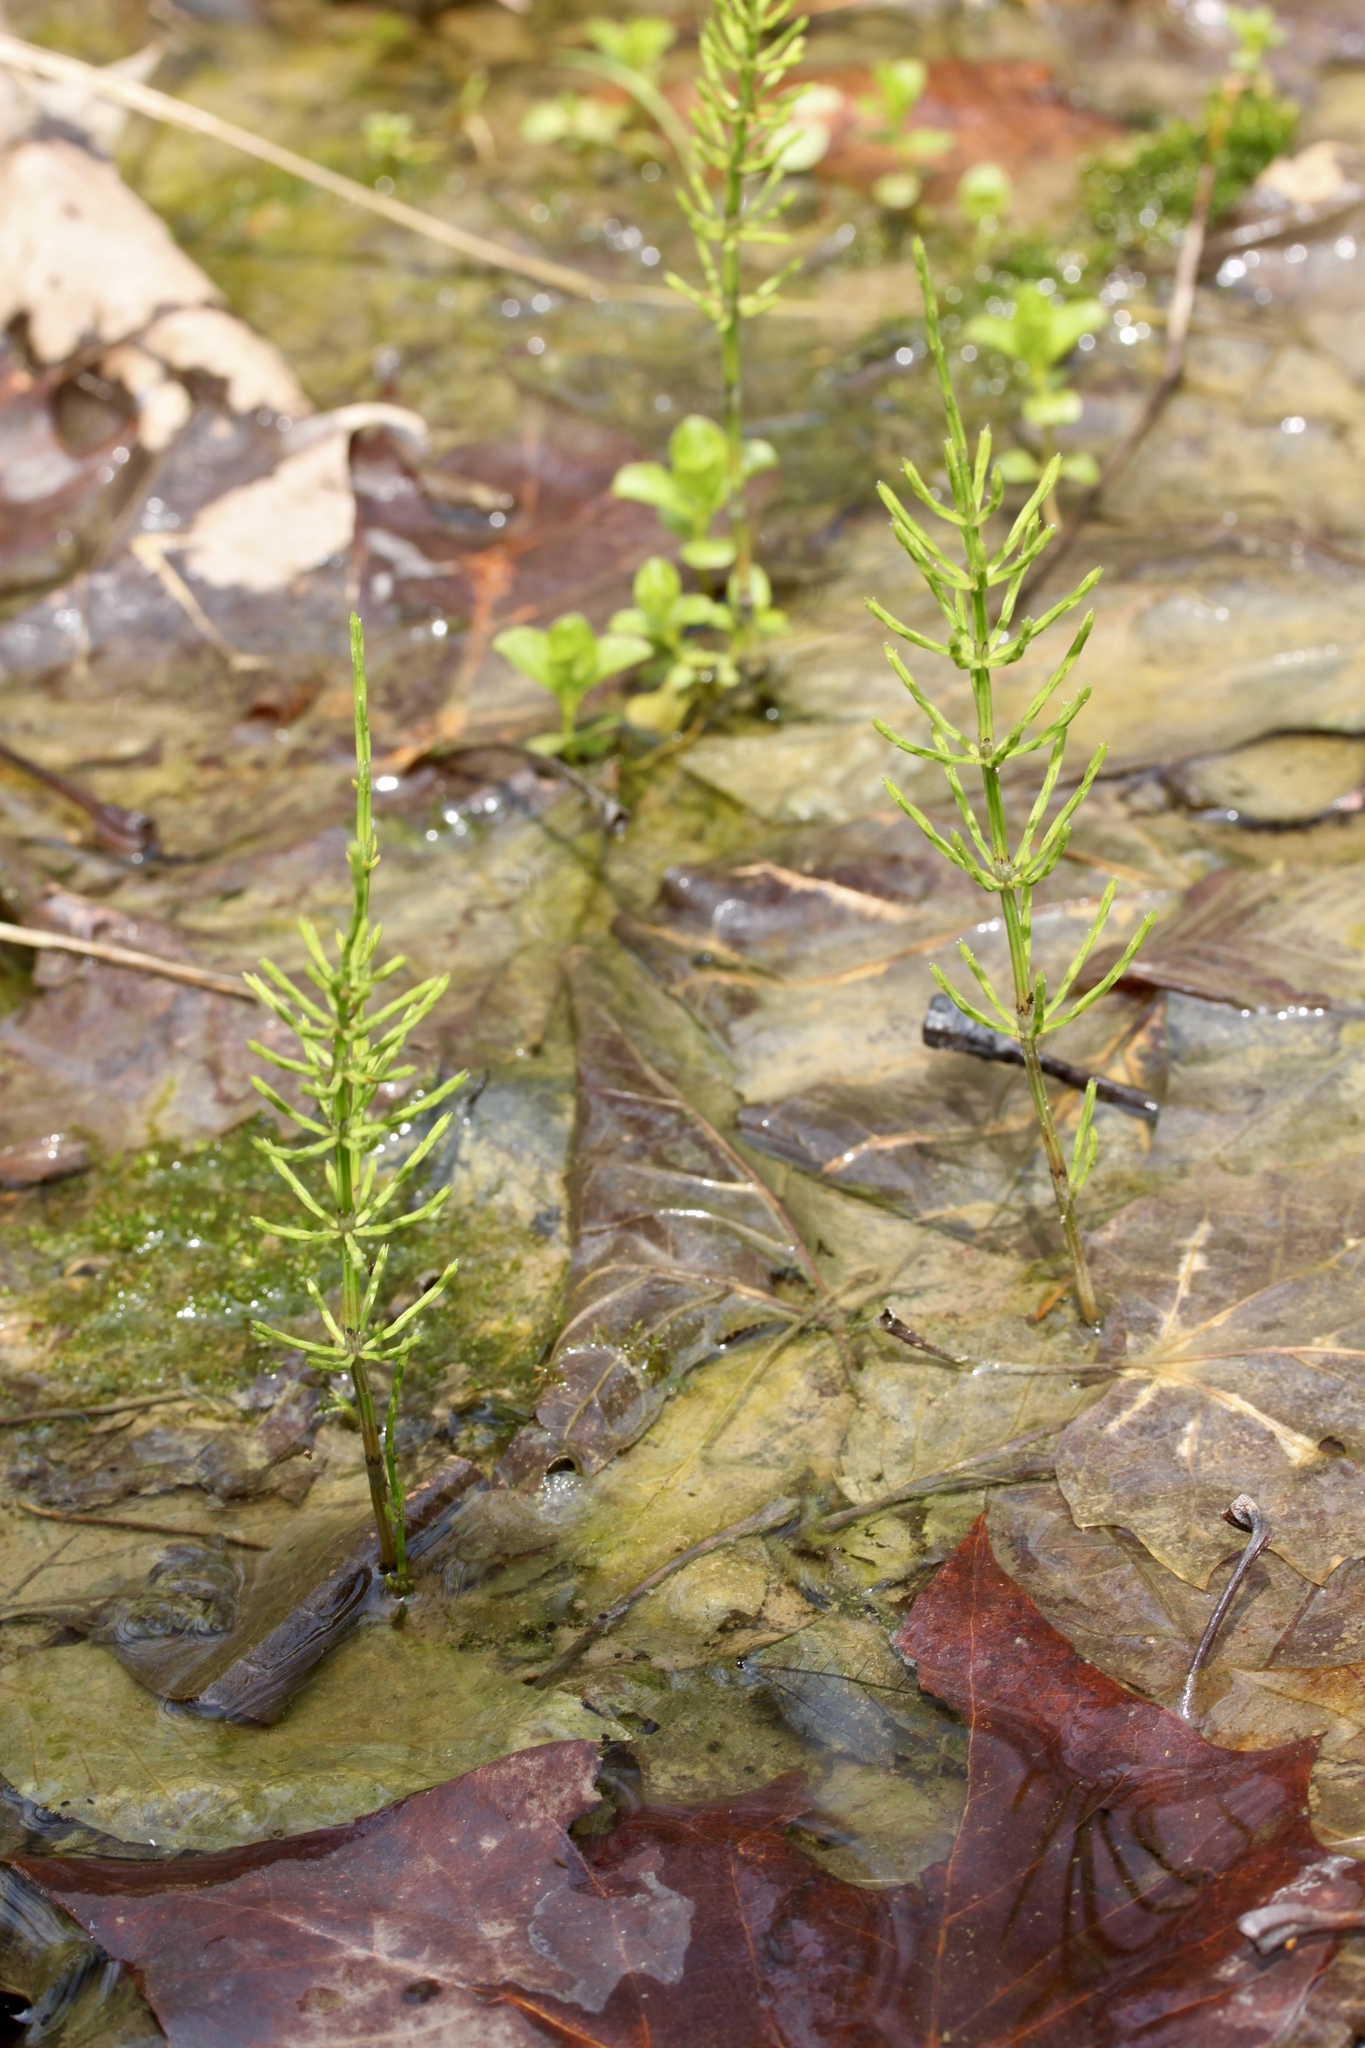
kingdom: Plantae
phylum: Tracheophyta
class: Polypodiopsida
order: Equisetales
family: Equisetaceae
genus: Equisetum
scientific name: Equisetum arvense
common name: Field horsetail
